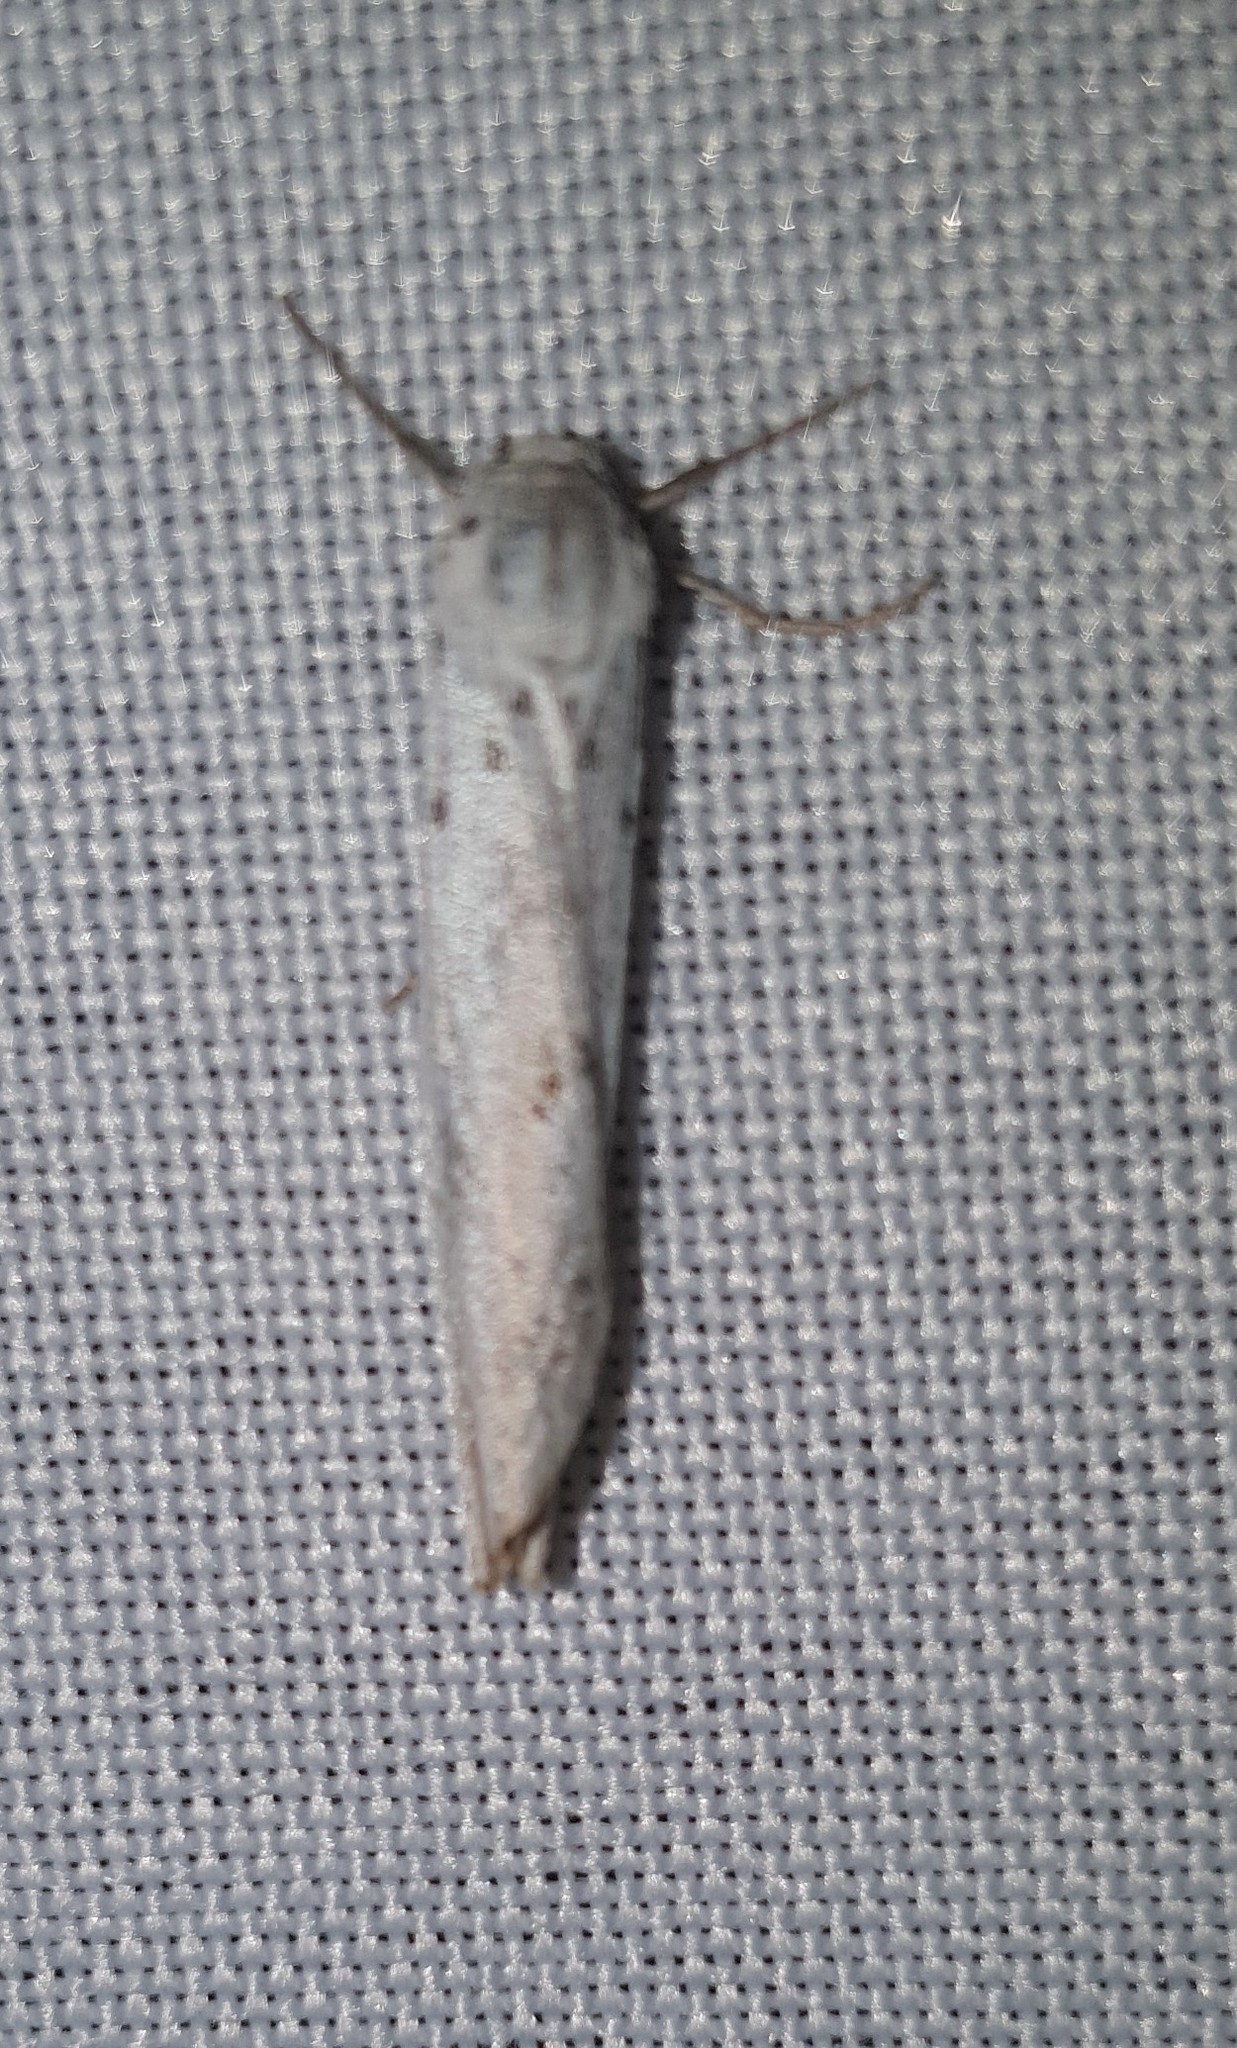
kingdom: Animalia
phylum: Arthropoda
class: Insecta
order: Lepidoptera
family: Erebidae
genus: Coscinia
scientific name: Coscinia cribraria
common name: Speckled footman
